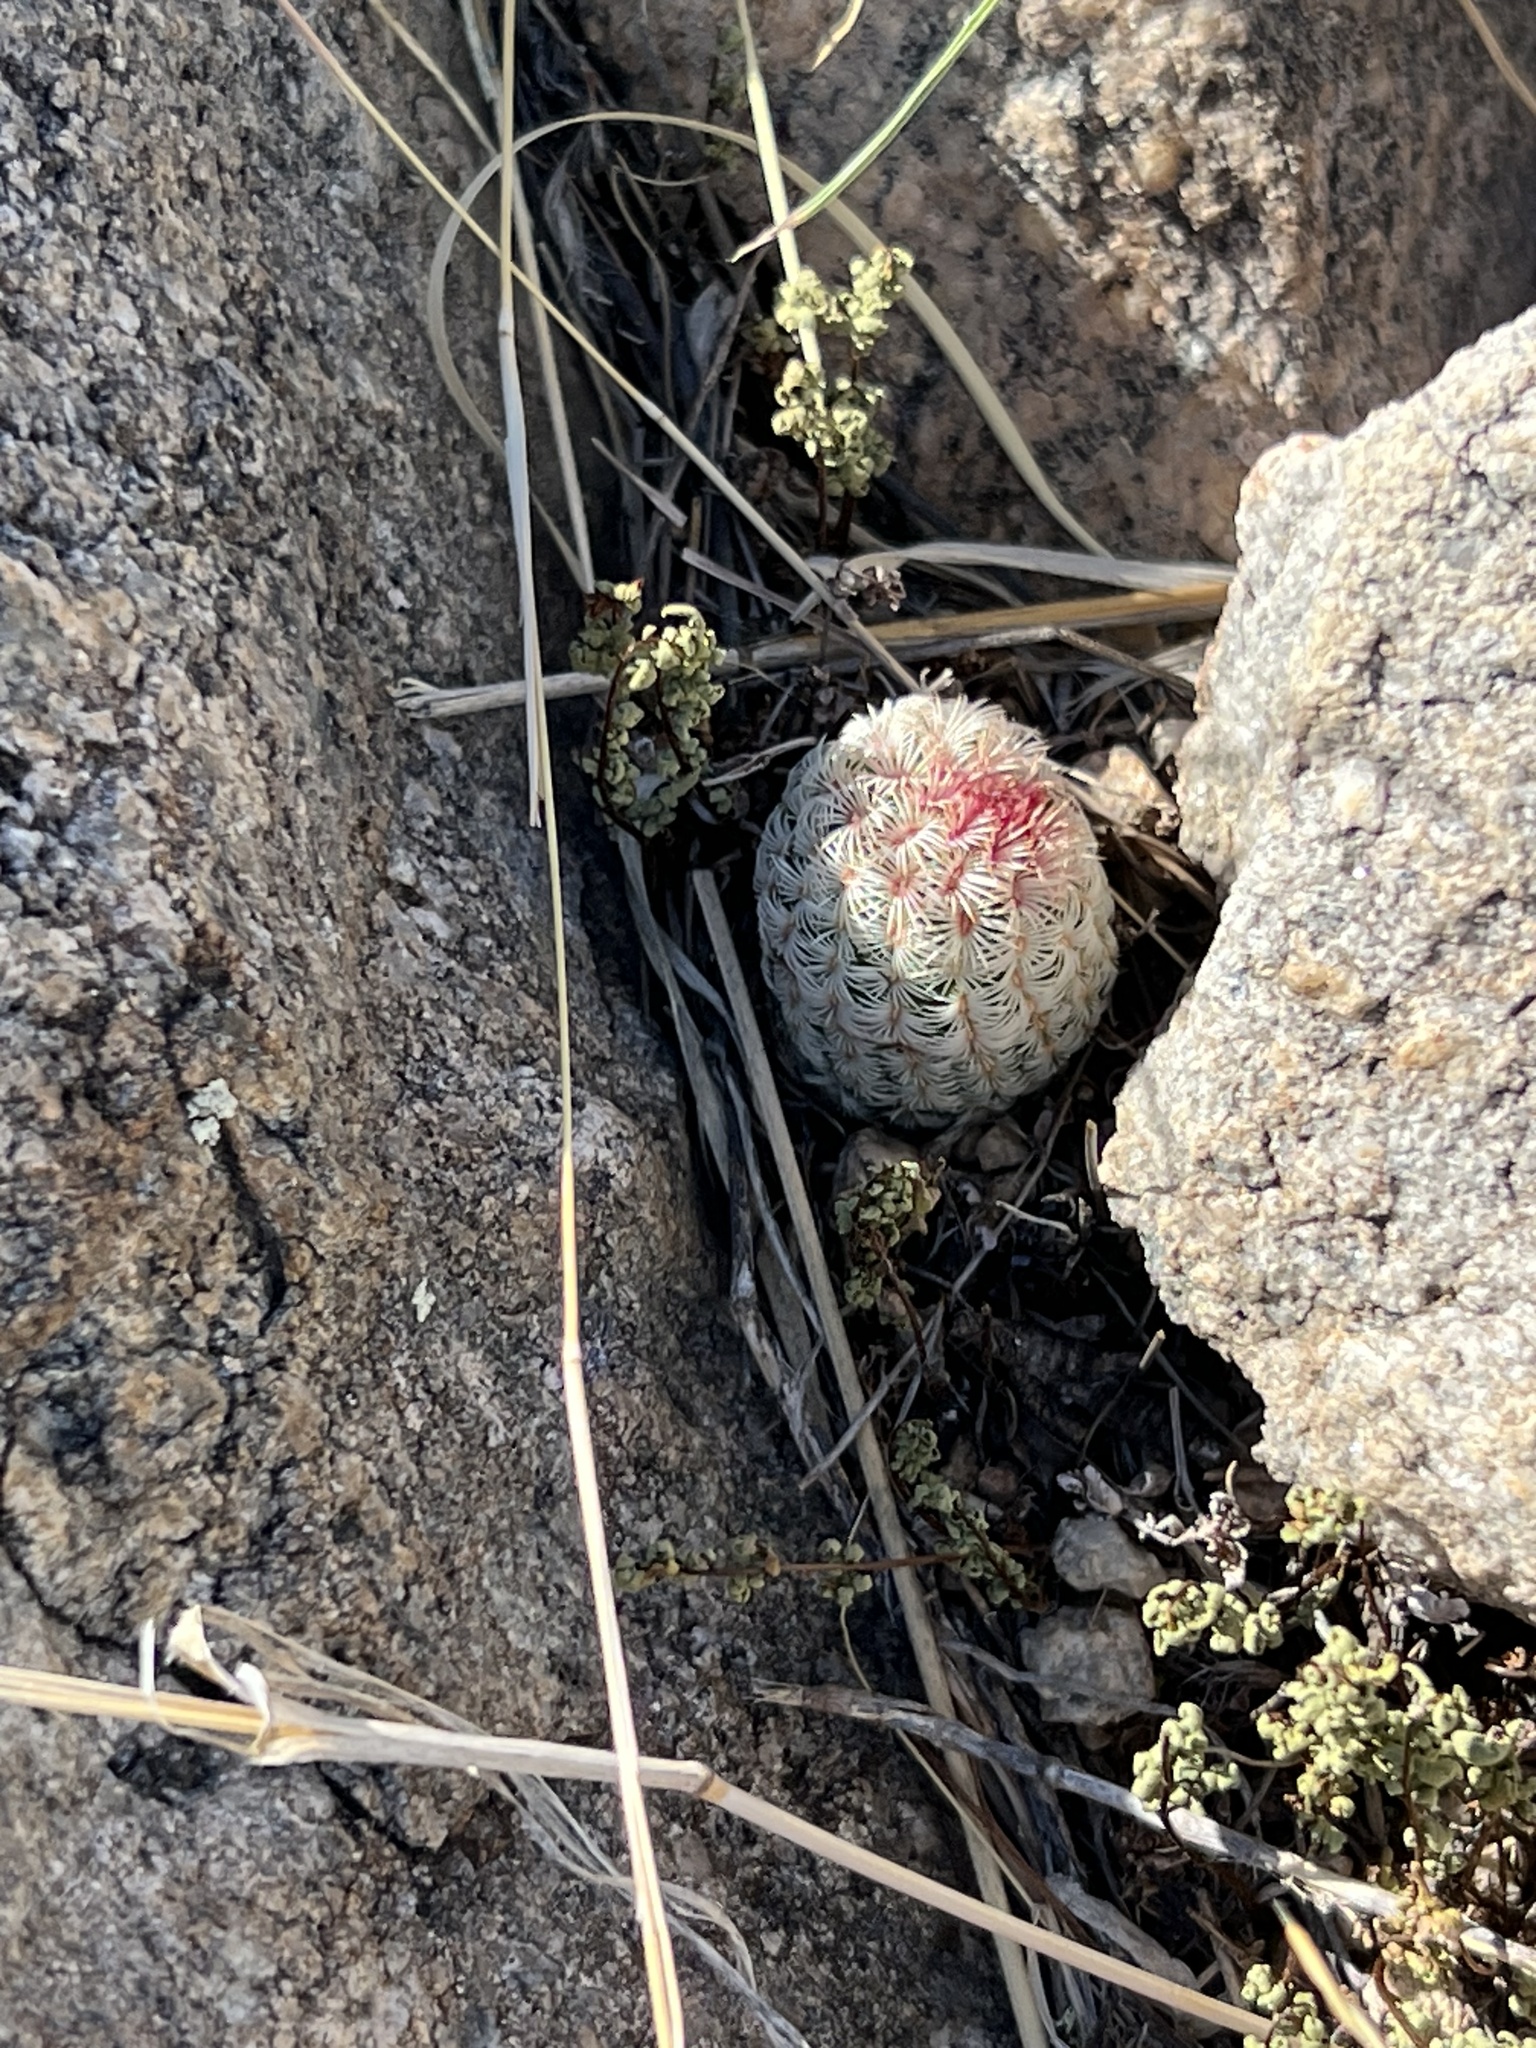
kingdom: Plantae
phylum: Tracheophyta
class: Magnoliopsida
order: Caryophyllales
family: Cactaceae
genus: Echinocereus
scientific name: Echinocereus rigidissimus
